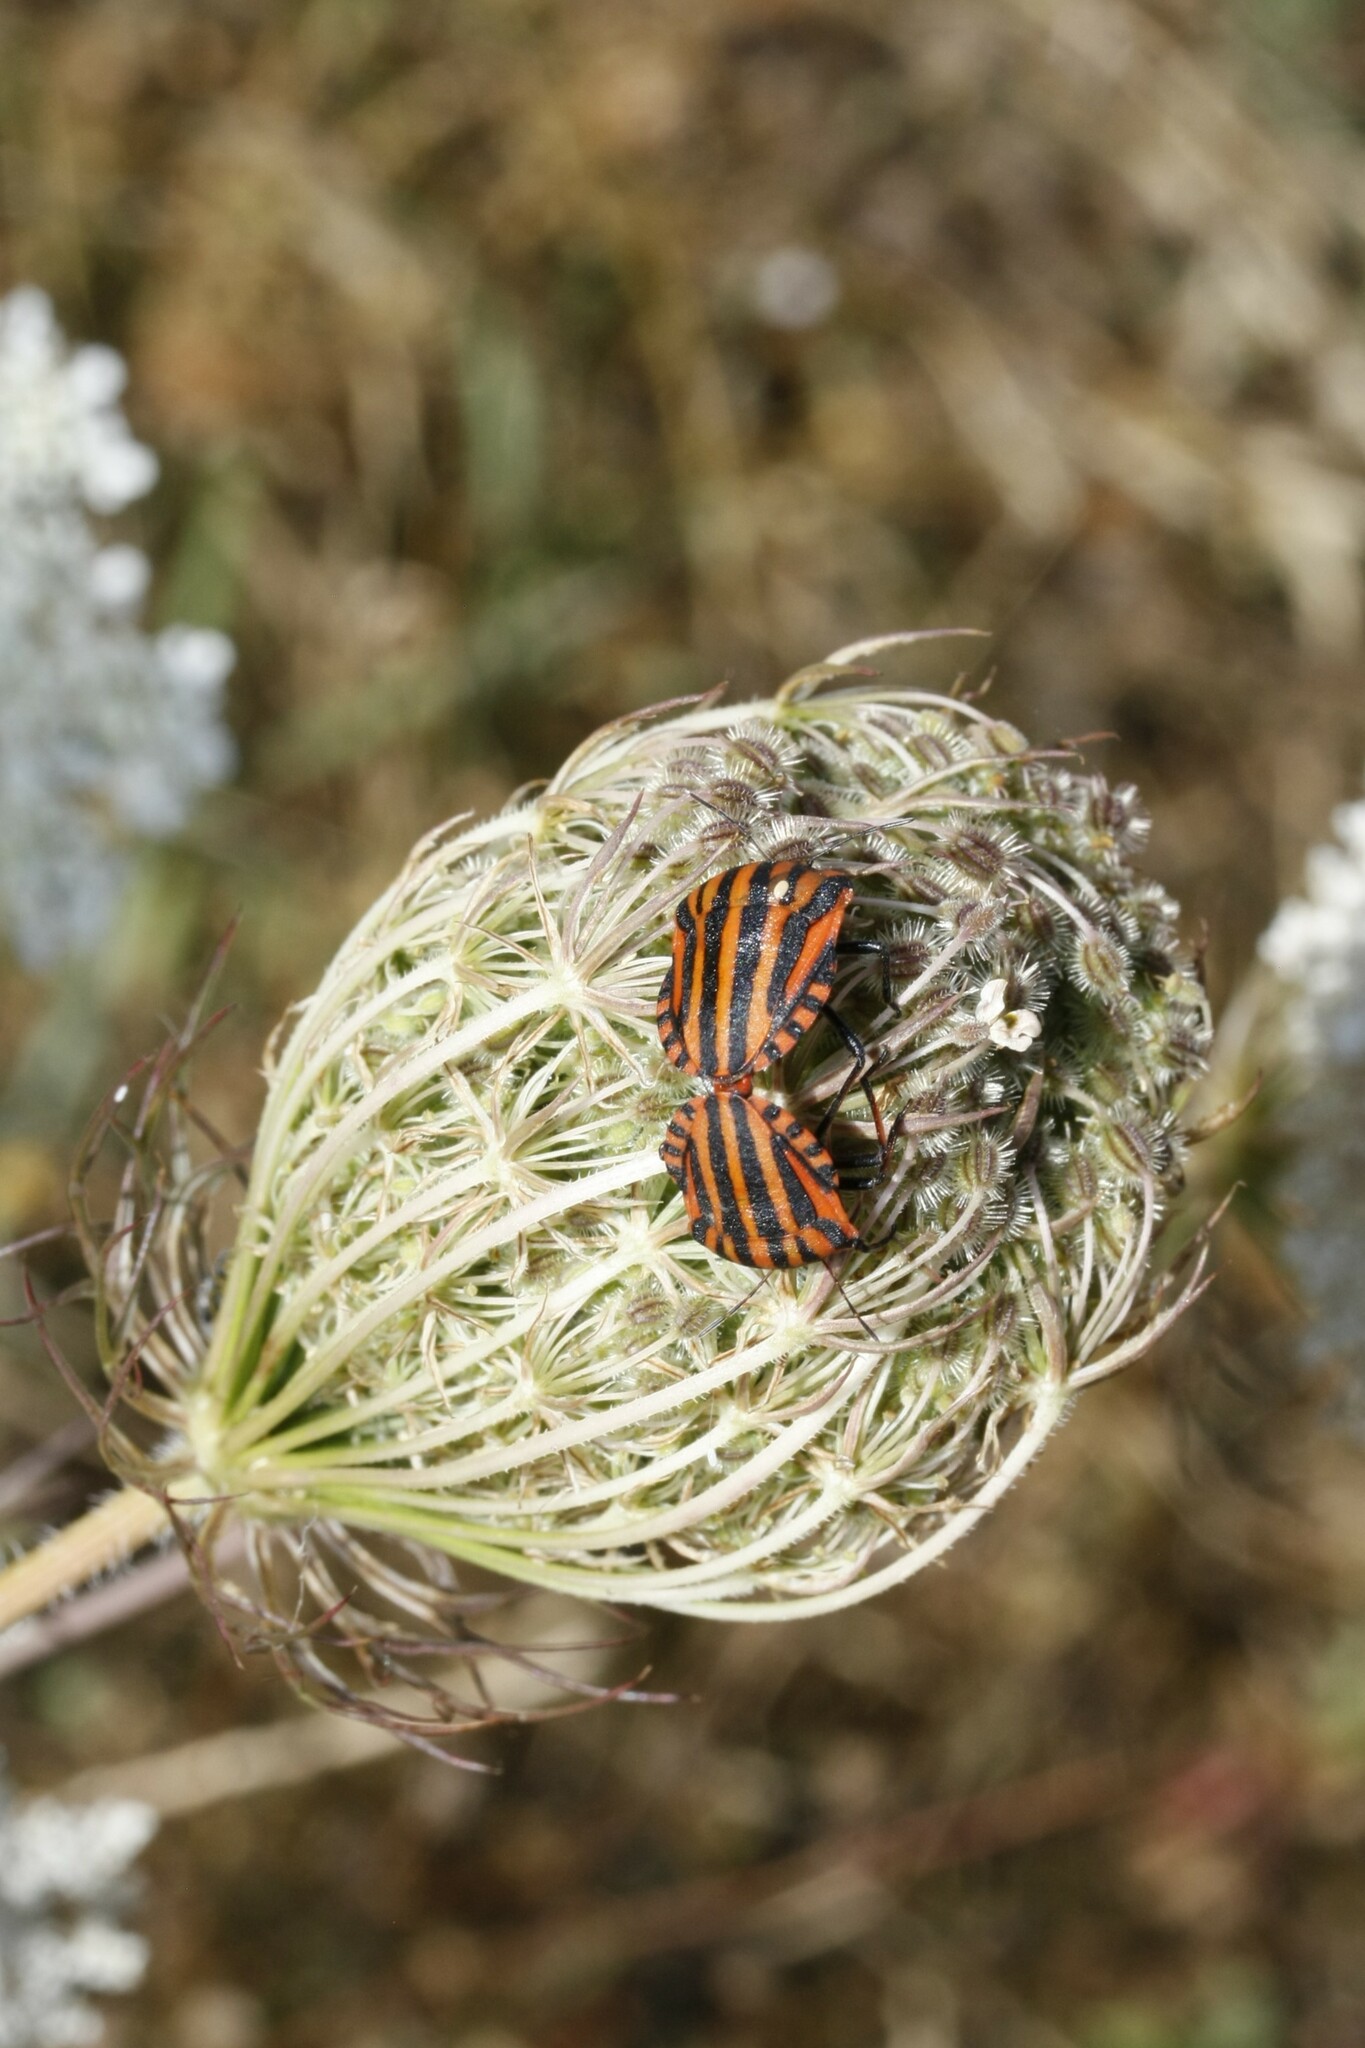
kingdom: Animalia
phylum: Arthropoda
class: Insecta
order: Hemiptera
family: Pentatomidae
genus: Graphosoma
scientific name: Graphosoma italicum
